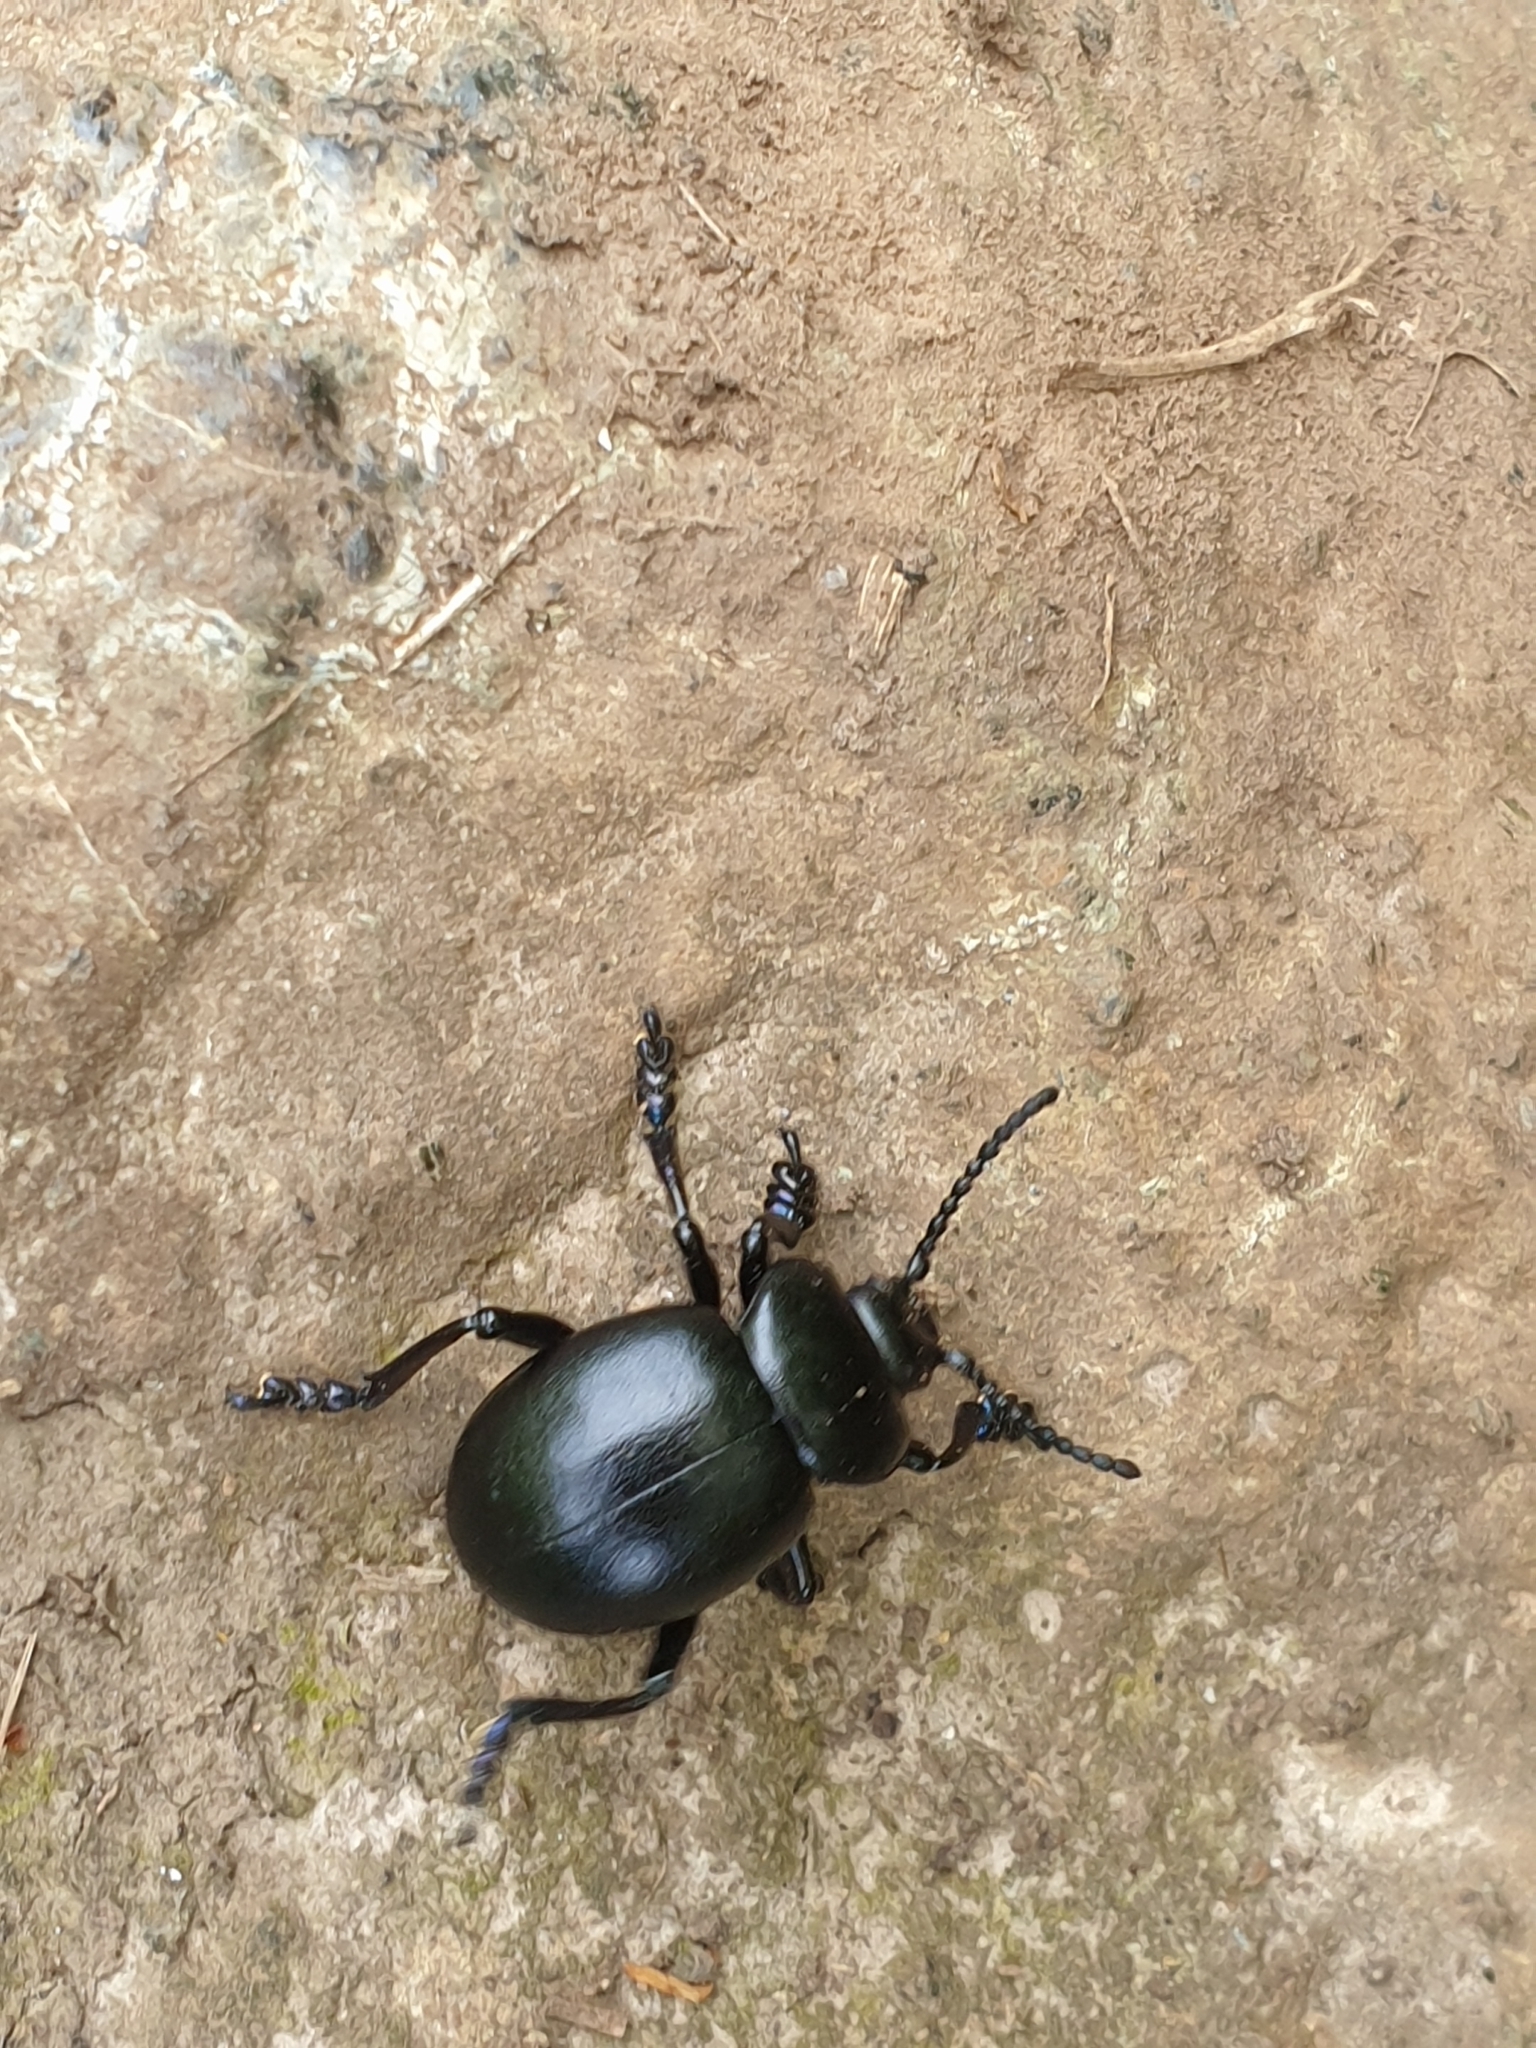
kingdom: Animalia
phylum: Arthropoda
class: Insecta
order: Coleoptera
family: Chrysomelidae
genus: Timarcha
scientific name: Timarcha tenebricosa
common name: Bloody-nosed beetle
